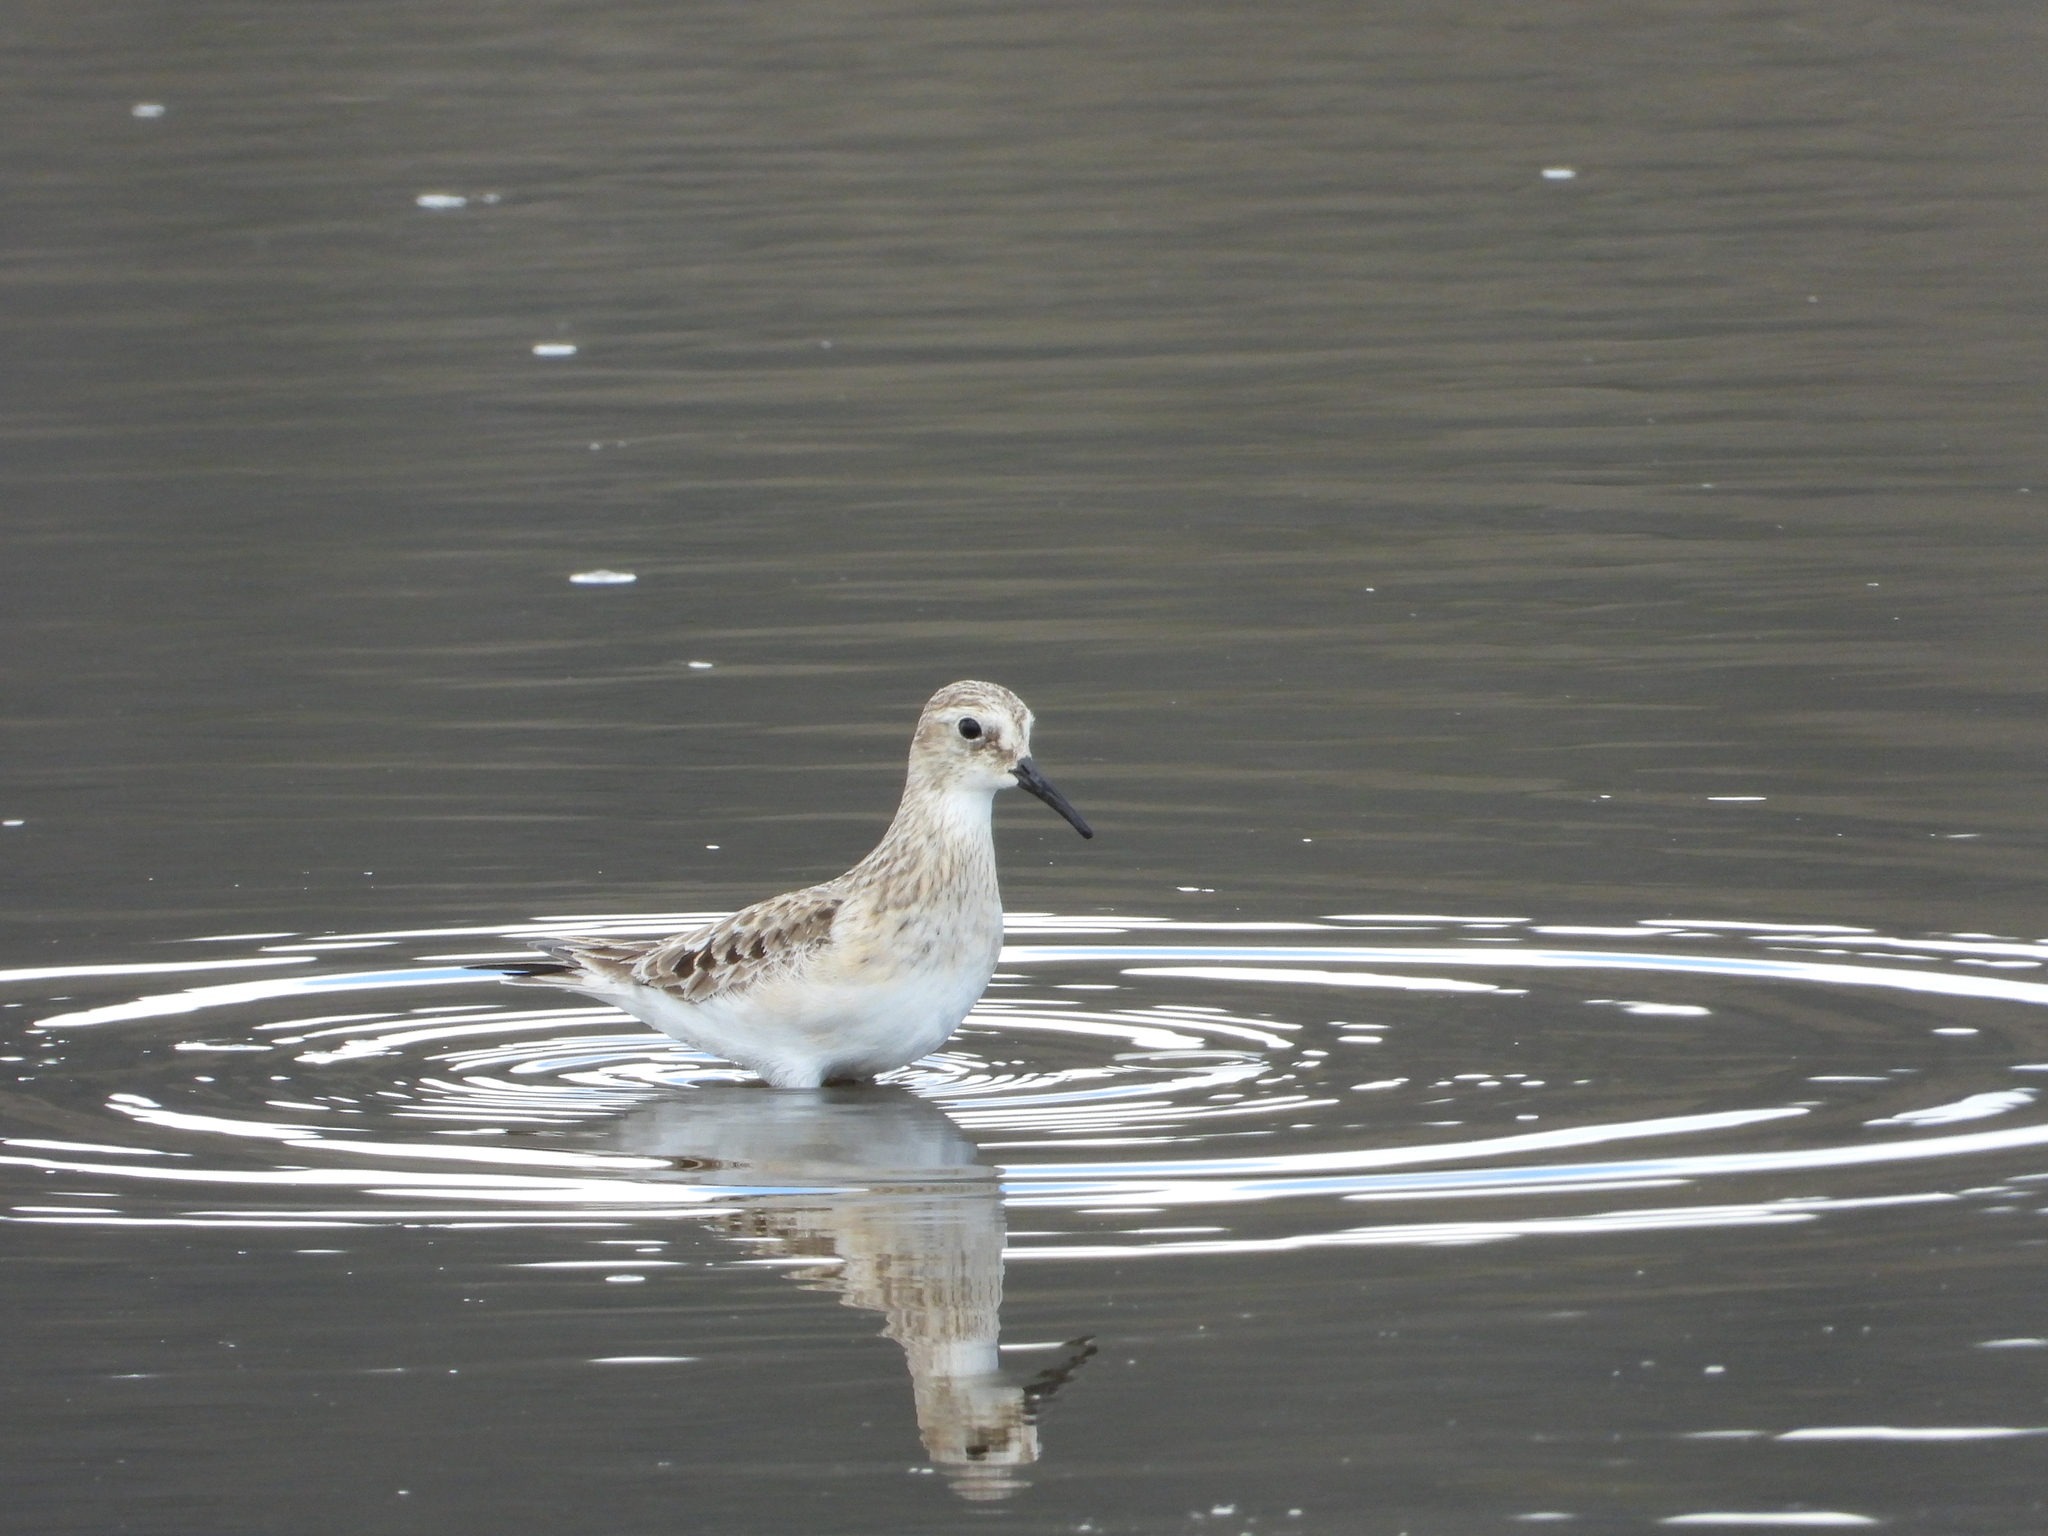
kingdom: Animalia
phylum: Chordata
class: Aves
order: Charadriiformes
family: Scolopacidae
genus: Calidris
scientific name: Calidris bairdii
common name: Baird's sandpiper
